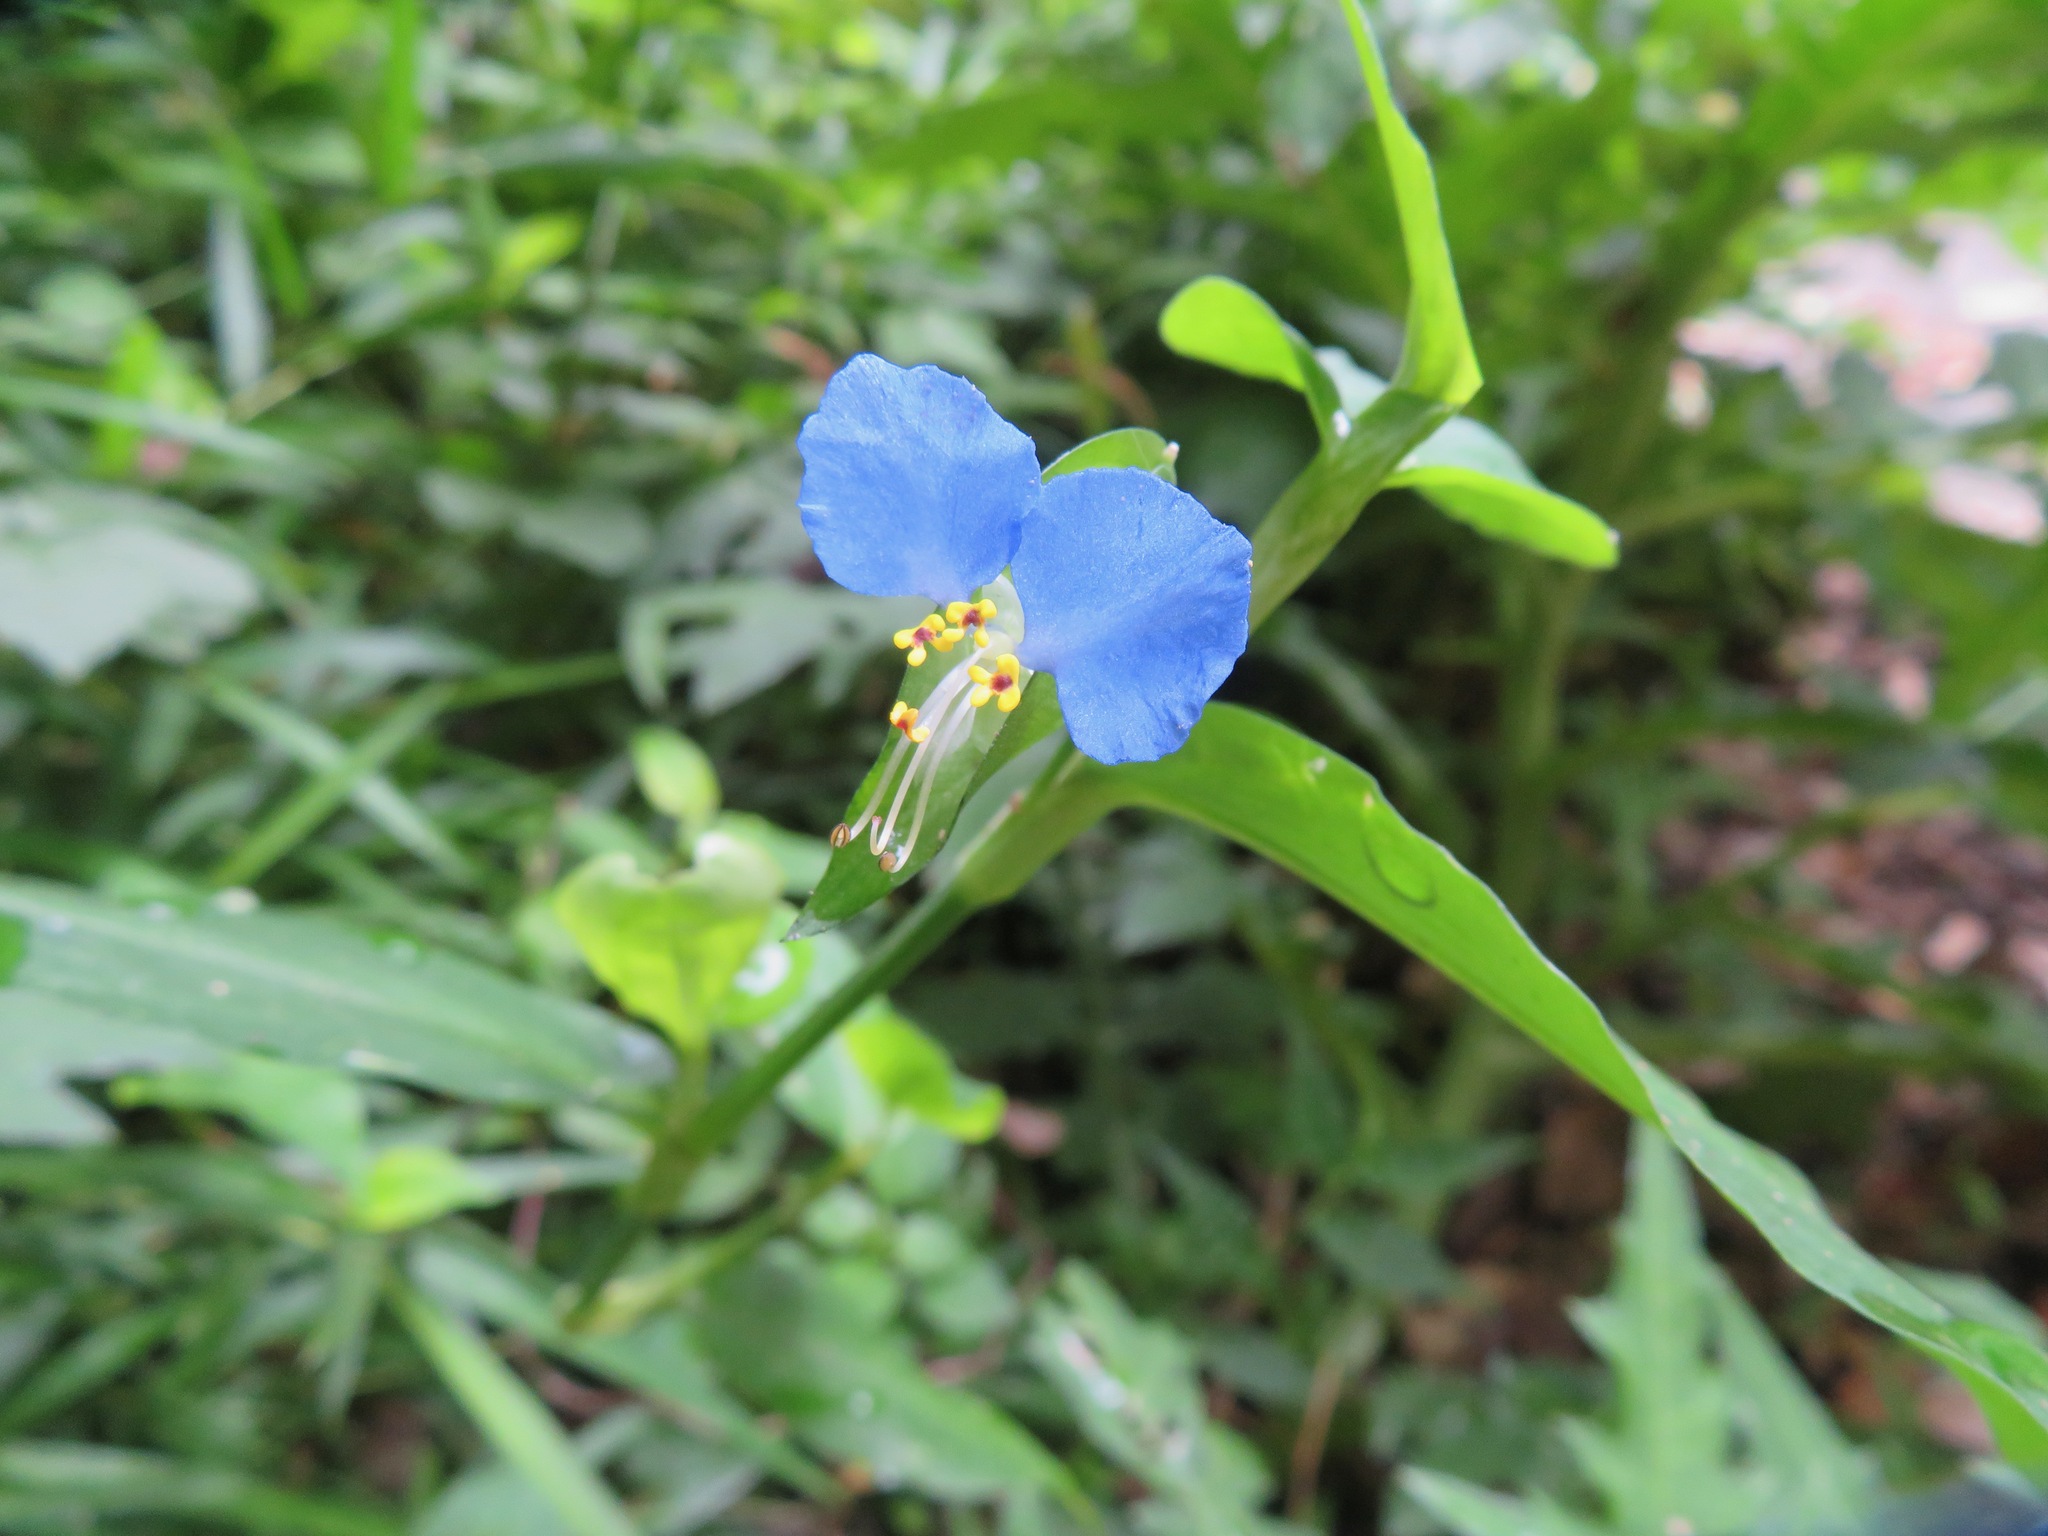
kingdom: Plantae
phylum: Tracheophyta
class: Liliopsida
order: Commelinales
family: Commelinaceae
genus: Commelina
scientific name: Commelina communis
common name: Asiatic dayflower
